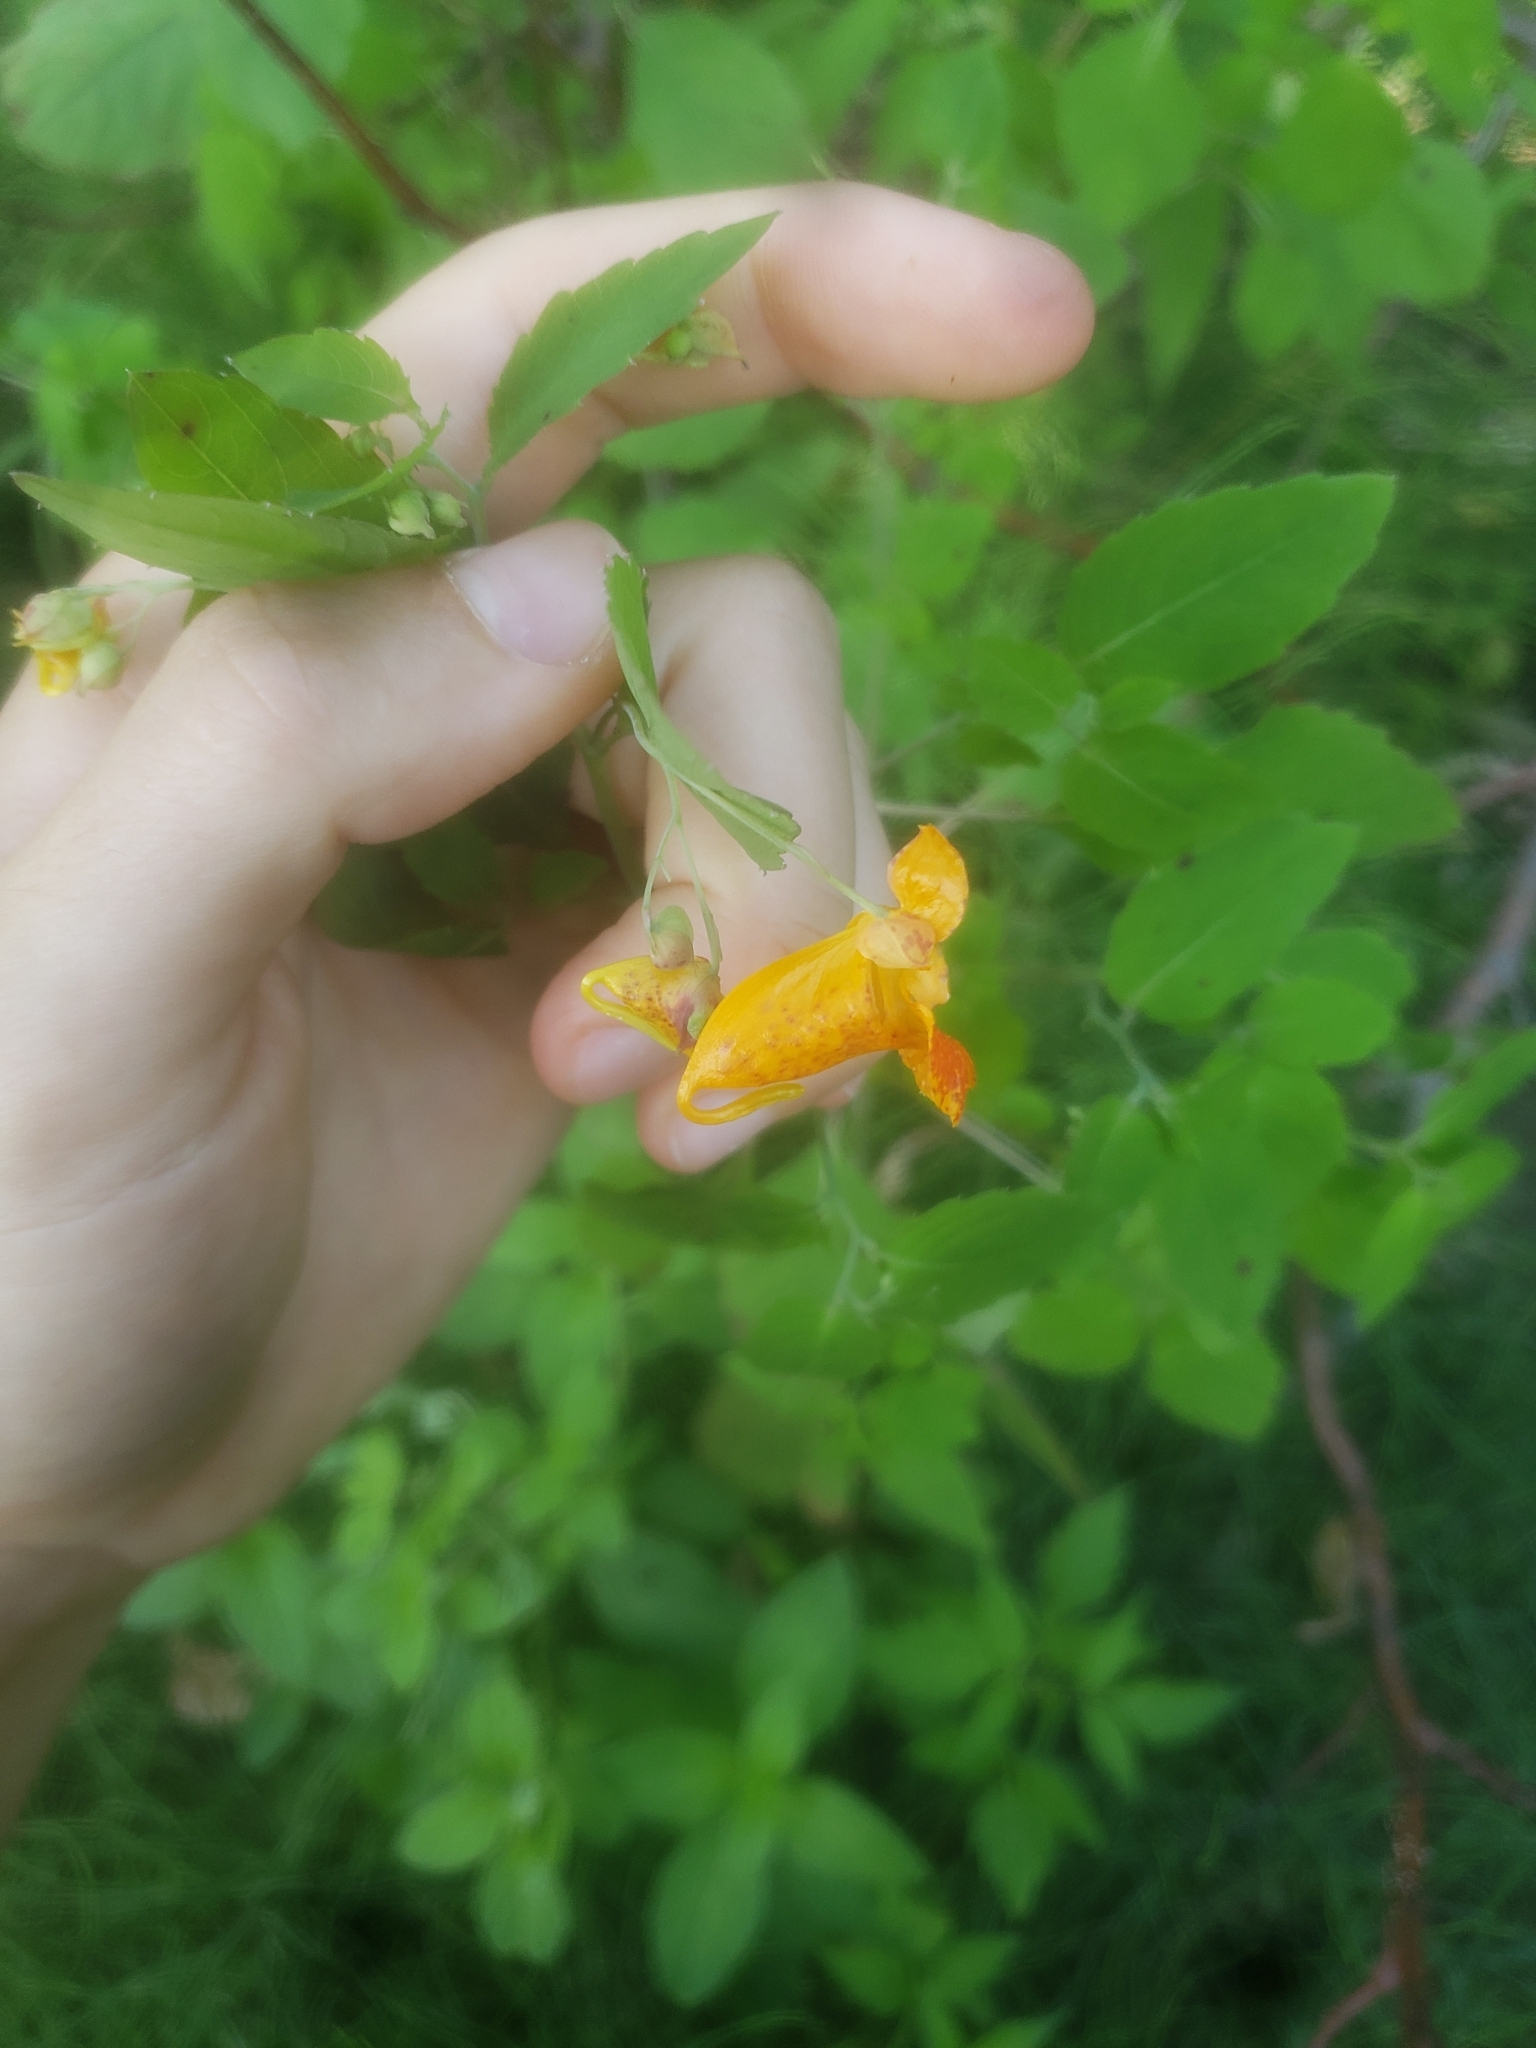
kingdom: Plantae
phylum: Tracheophyta
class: Magnoliopsida
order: Ericales
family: Balsaminaceae
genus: Impatiens
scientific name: Impatiens capensis
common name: Orange balsam
